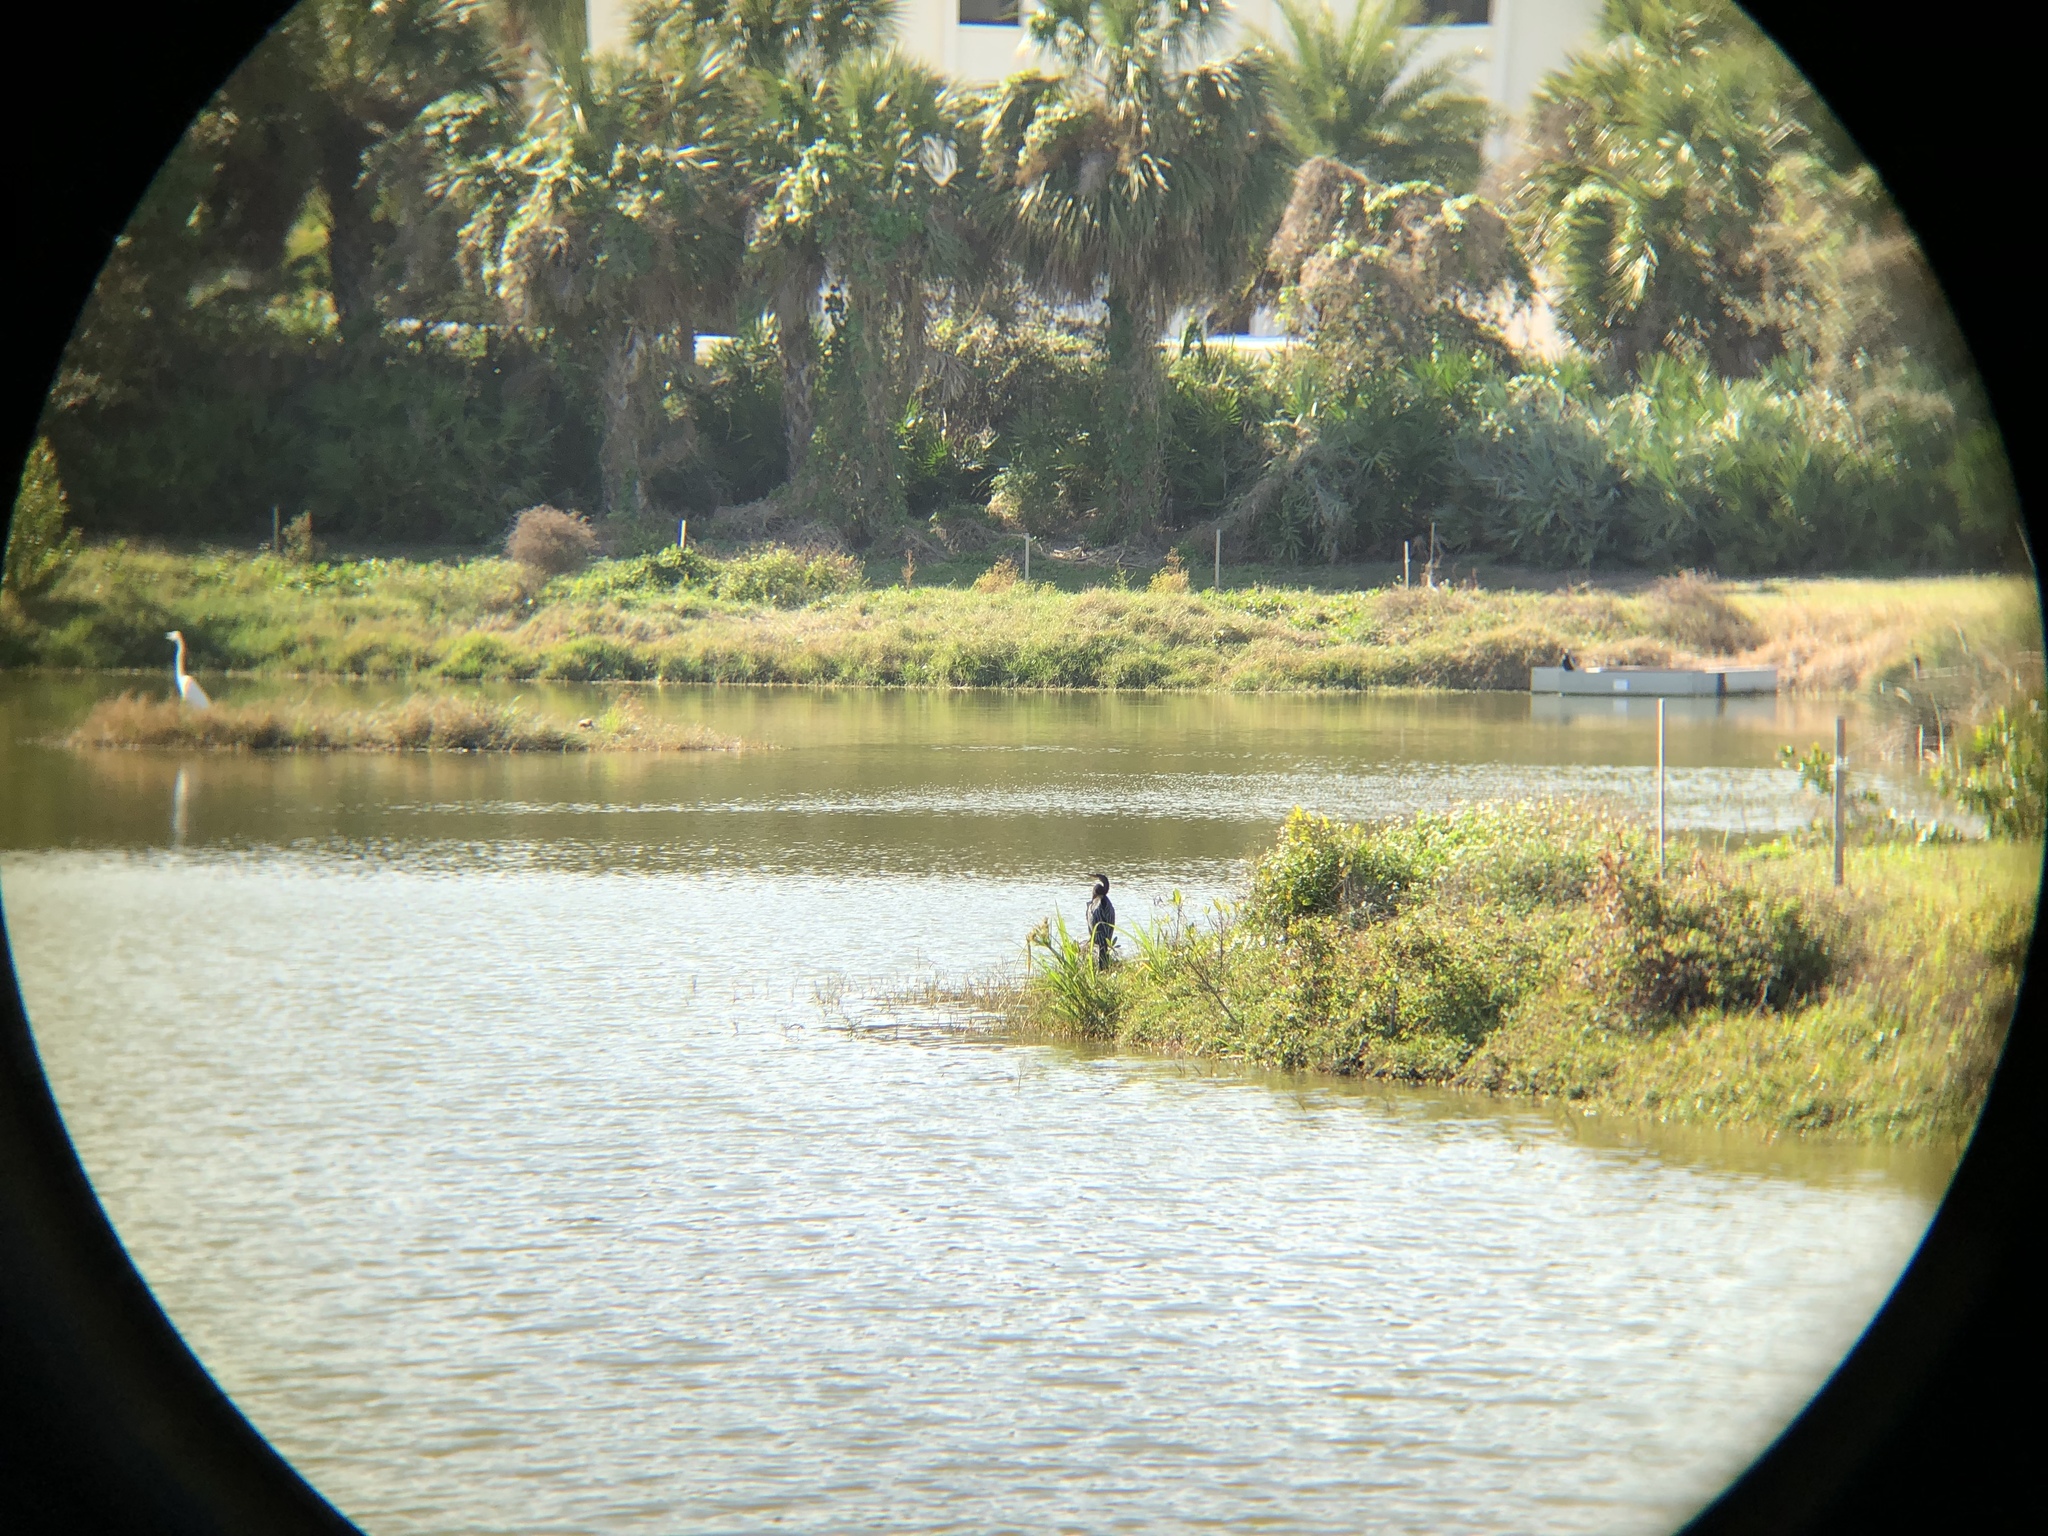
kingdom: Animalia
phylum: Chordata
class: Aves
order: Pelecaniformes
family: Ardeidae
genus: Ardea
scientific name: Ardea alba
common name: Great egret
